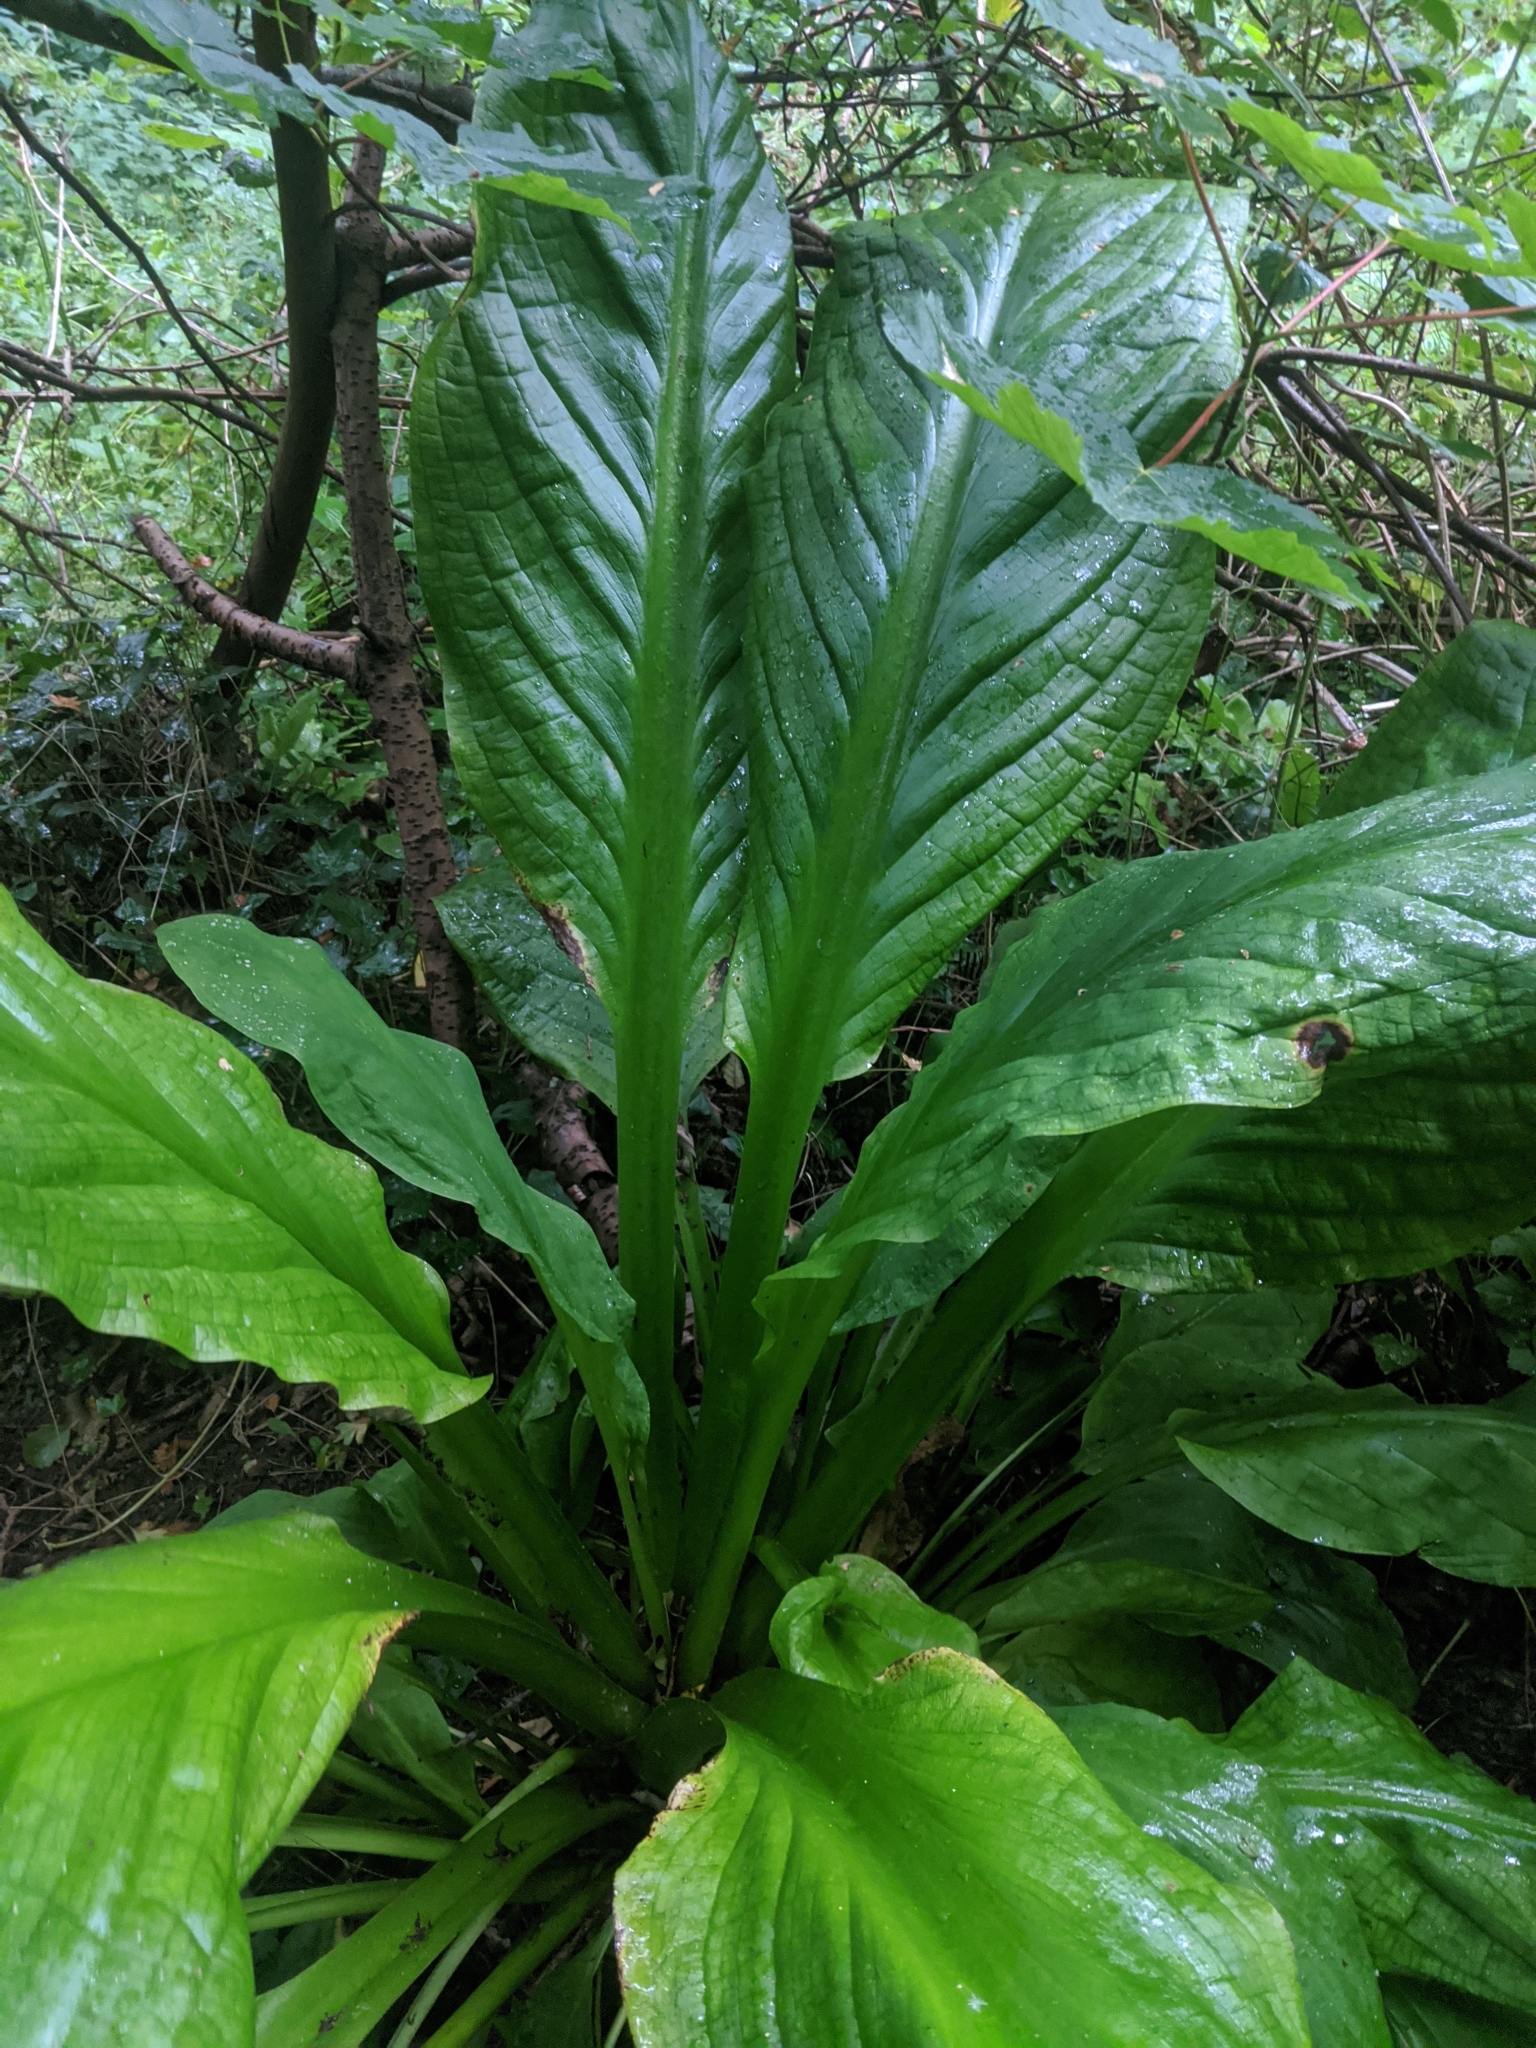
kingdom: Plantae
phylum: Tracheophyta
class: Liliopsida
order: Alismatales
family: Araceae
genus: Lysichiton
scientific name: Lysichiton americanus
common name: American skunk cabbage
